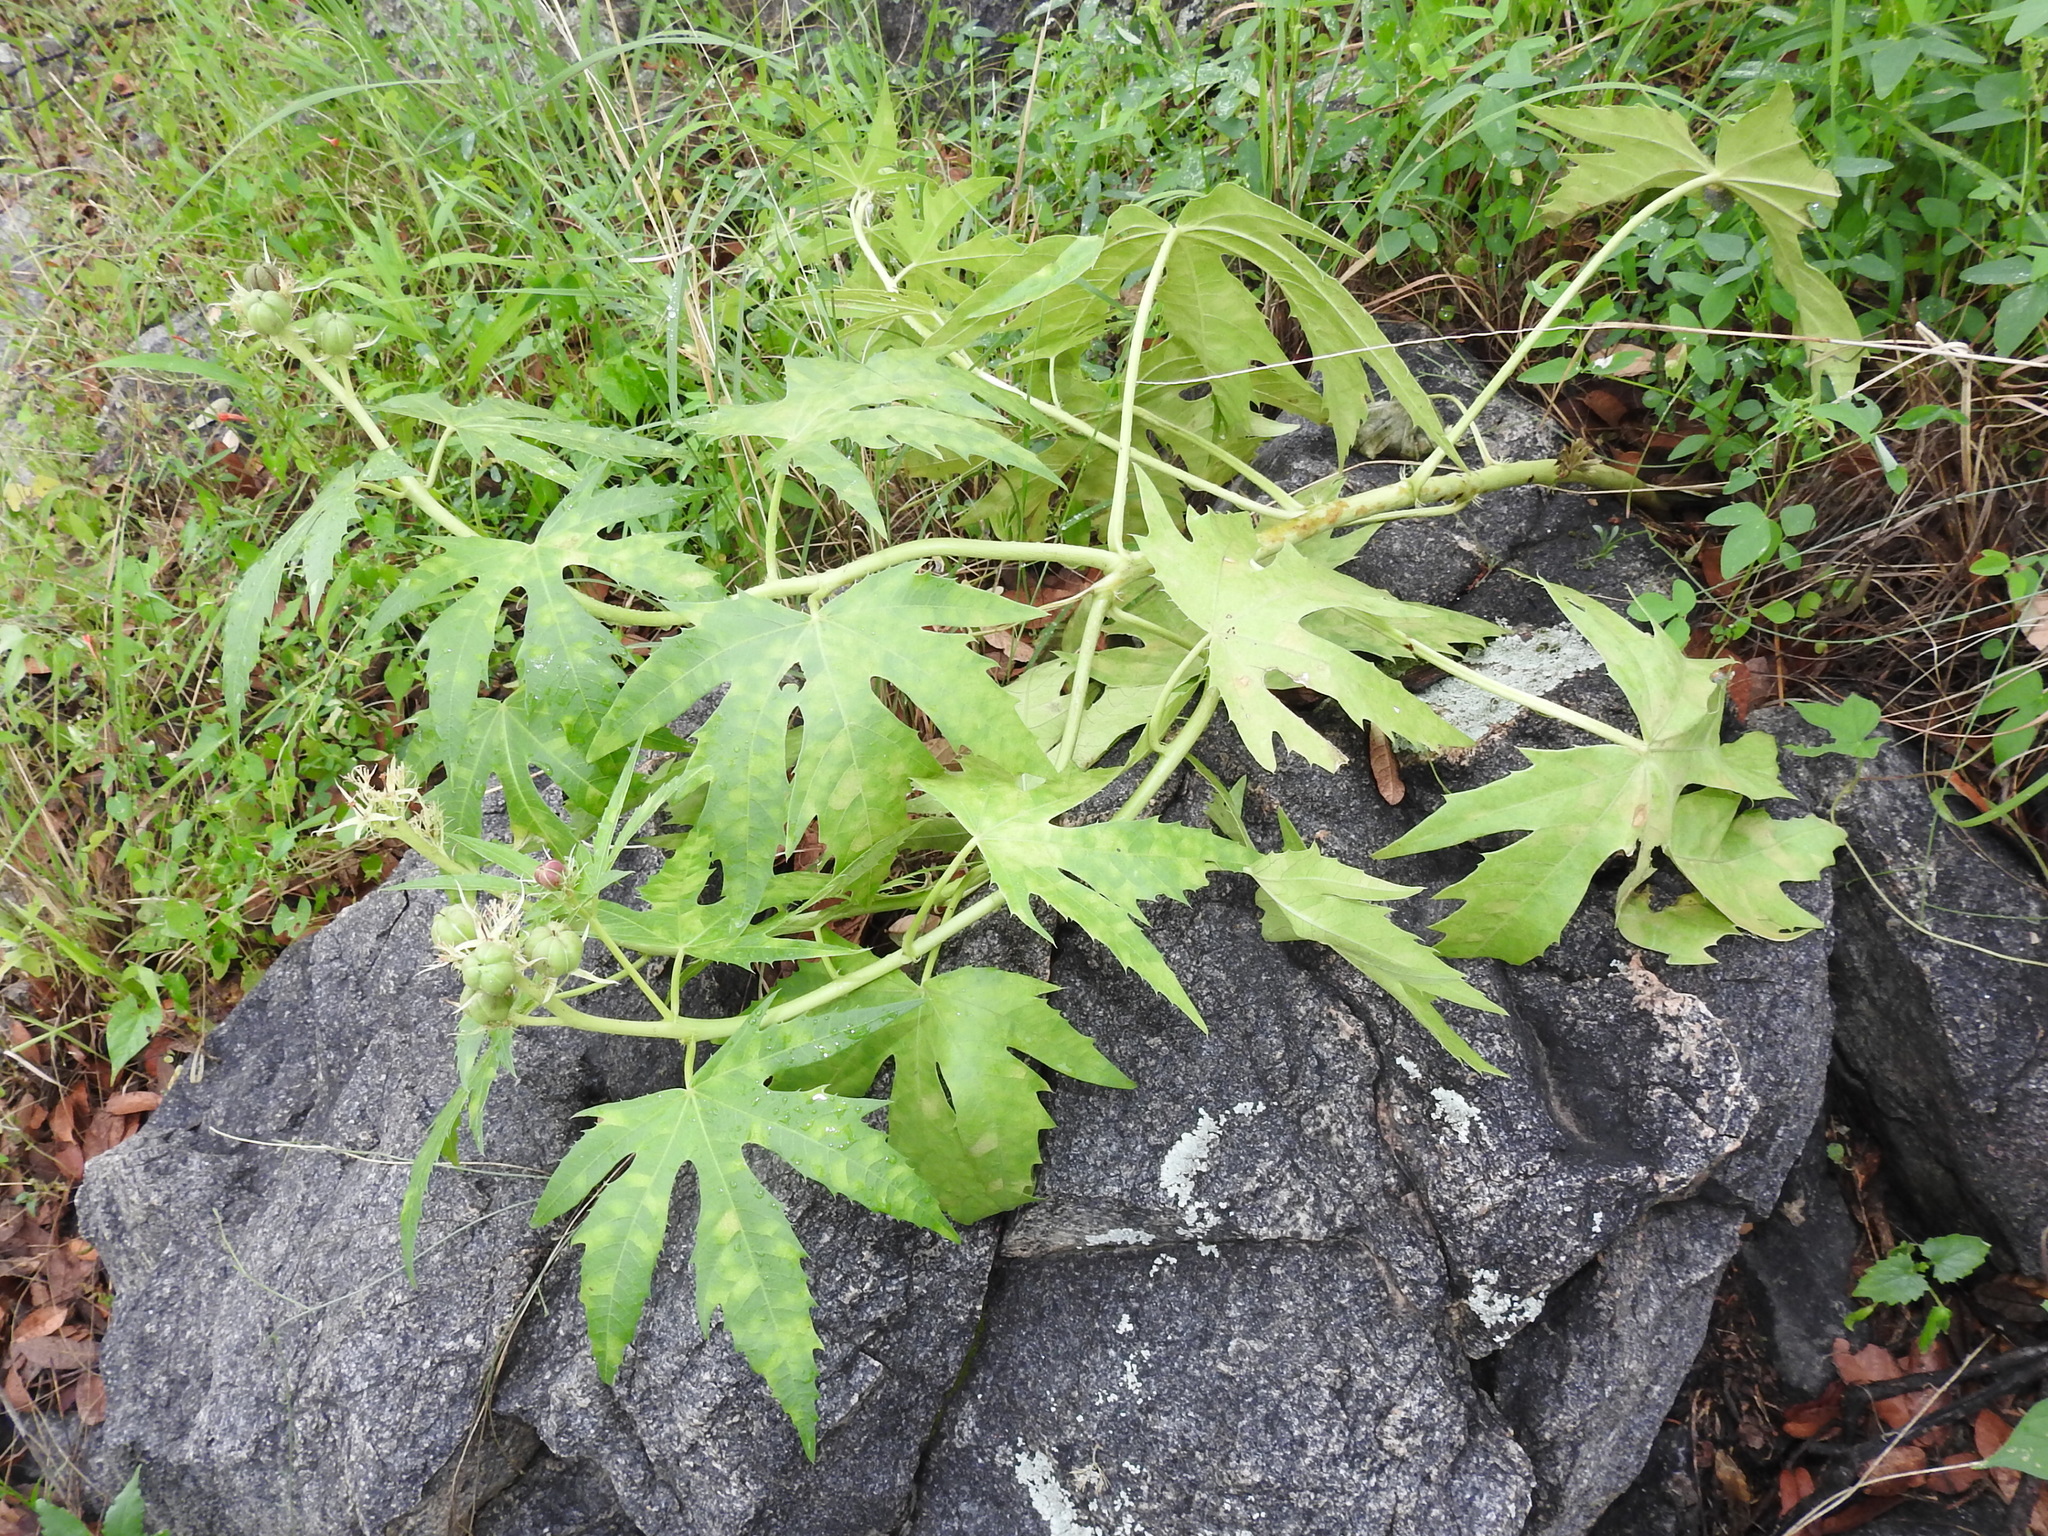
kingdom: Plantae
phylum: Tracheophyta
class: Magnoliopsida
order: Malpighiales
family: Euphorbiaceae
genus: Jatropha
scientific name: Jatropha macrorhiza
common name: Ragged nettlespurge
